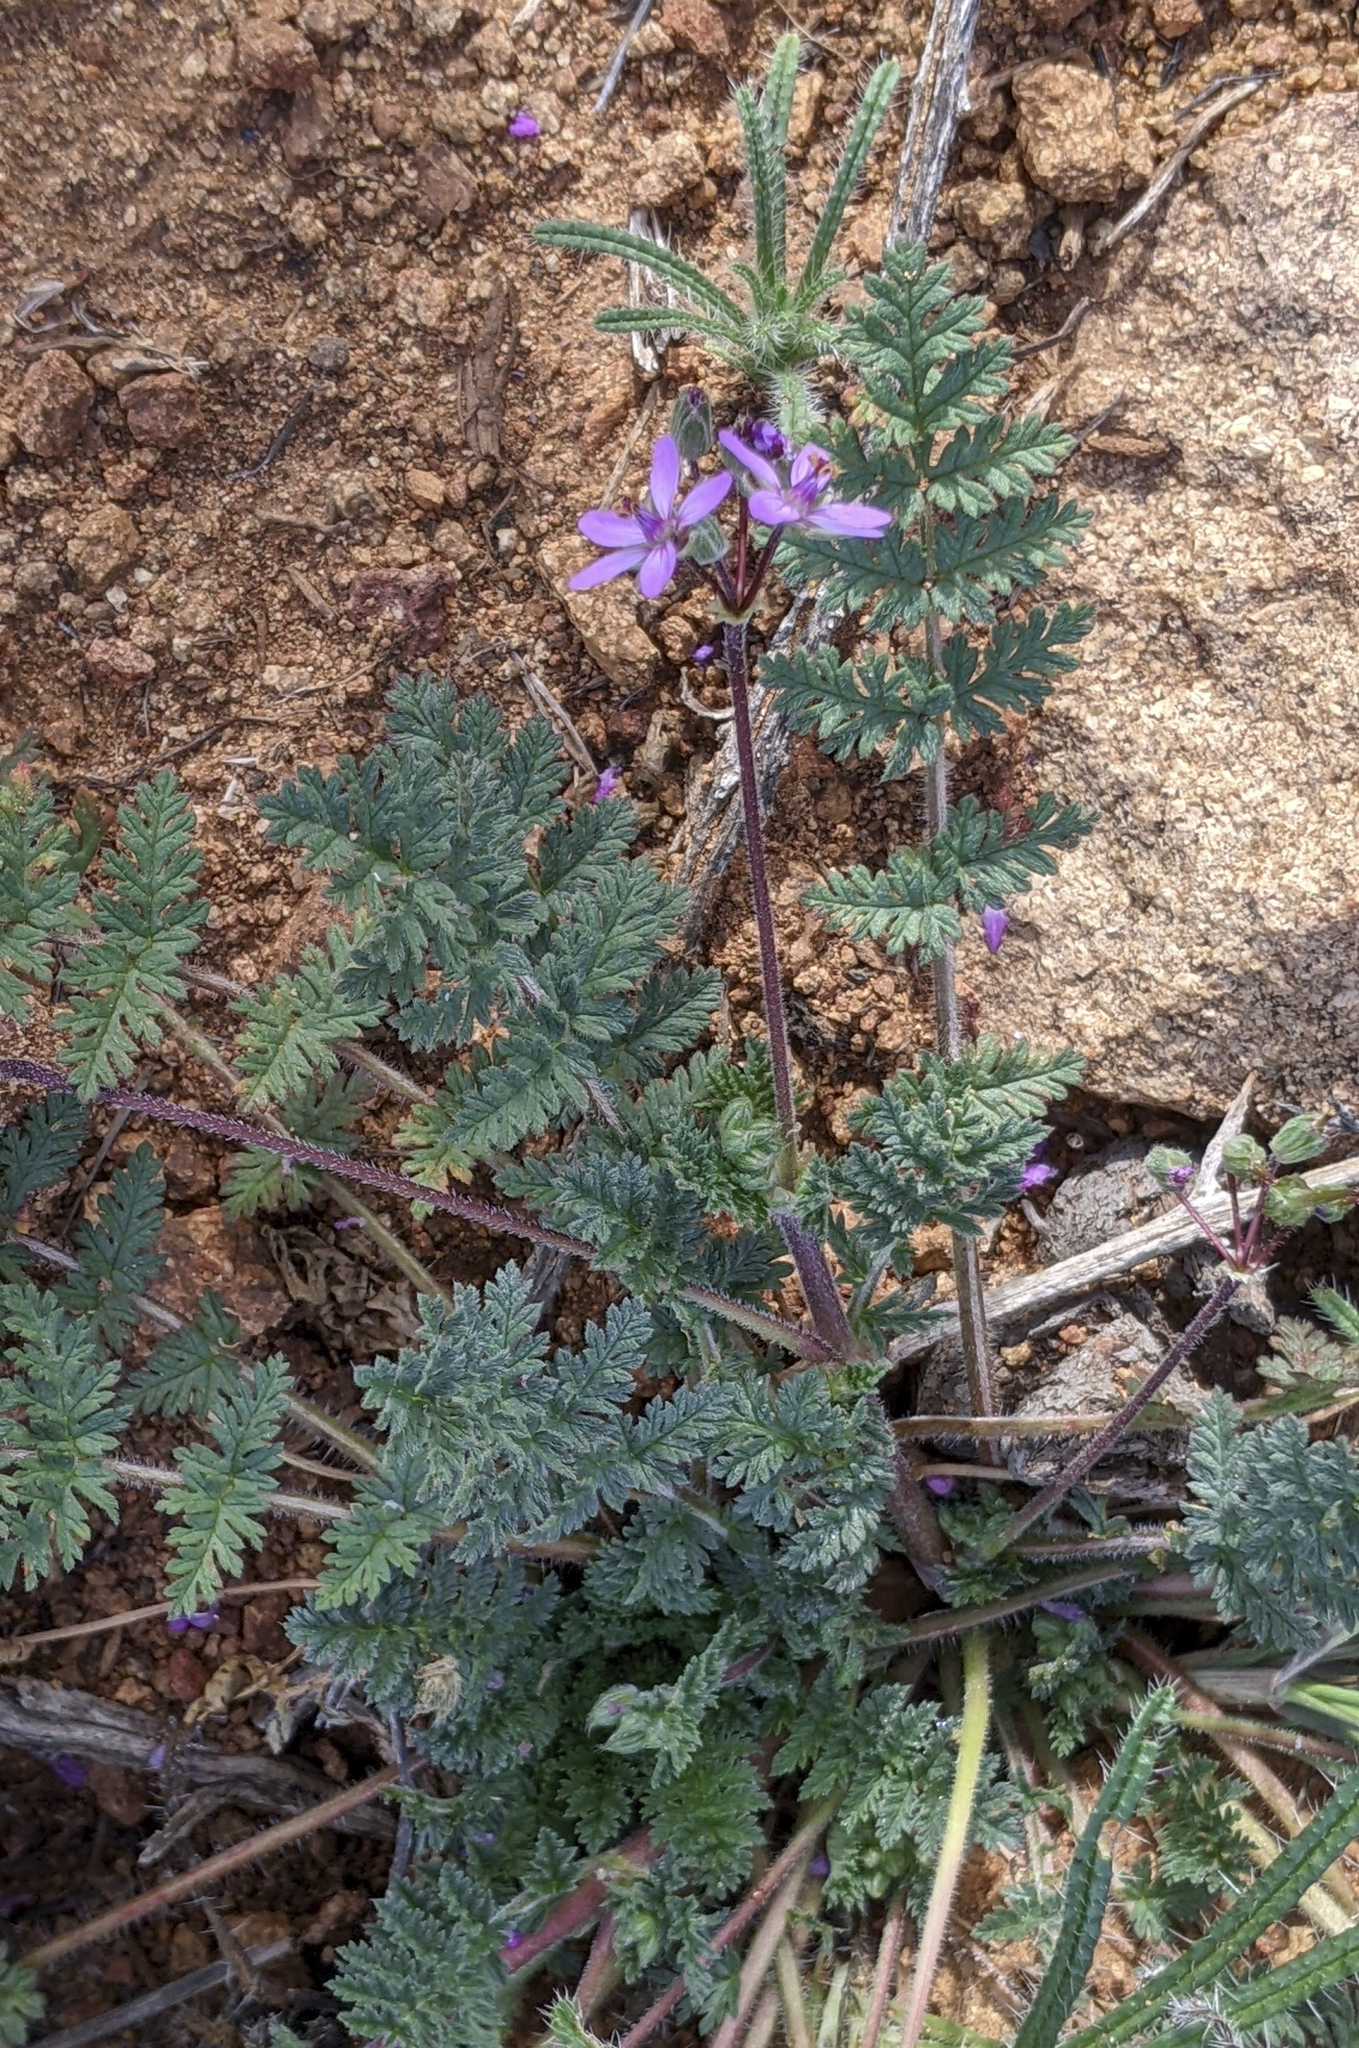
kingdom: Plantae
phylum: Tracheophyta
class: Magnoliopsida
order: Geraniales
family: Geraniaceae
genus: Erodium
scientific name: Erodium cicutarium
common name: Common stork's-bill
